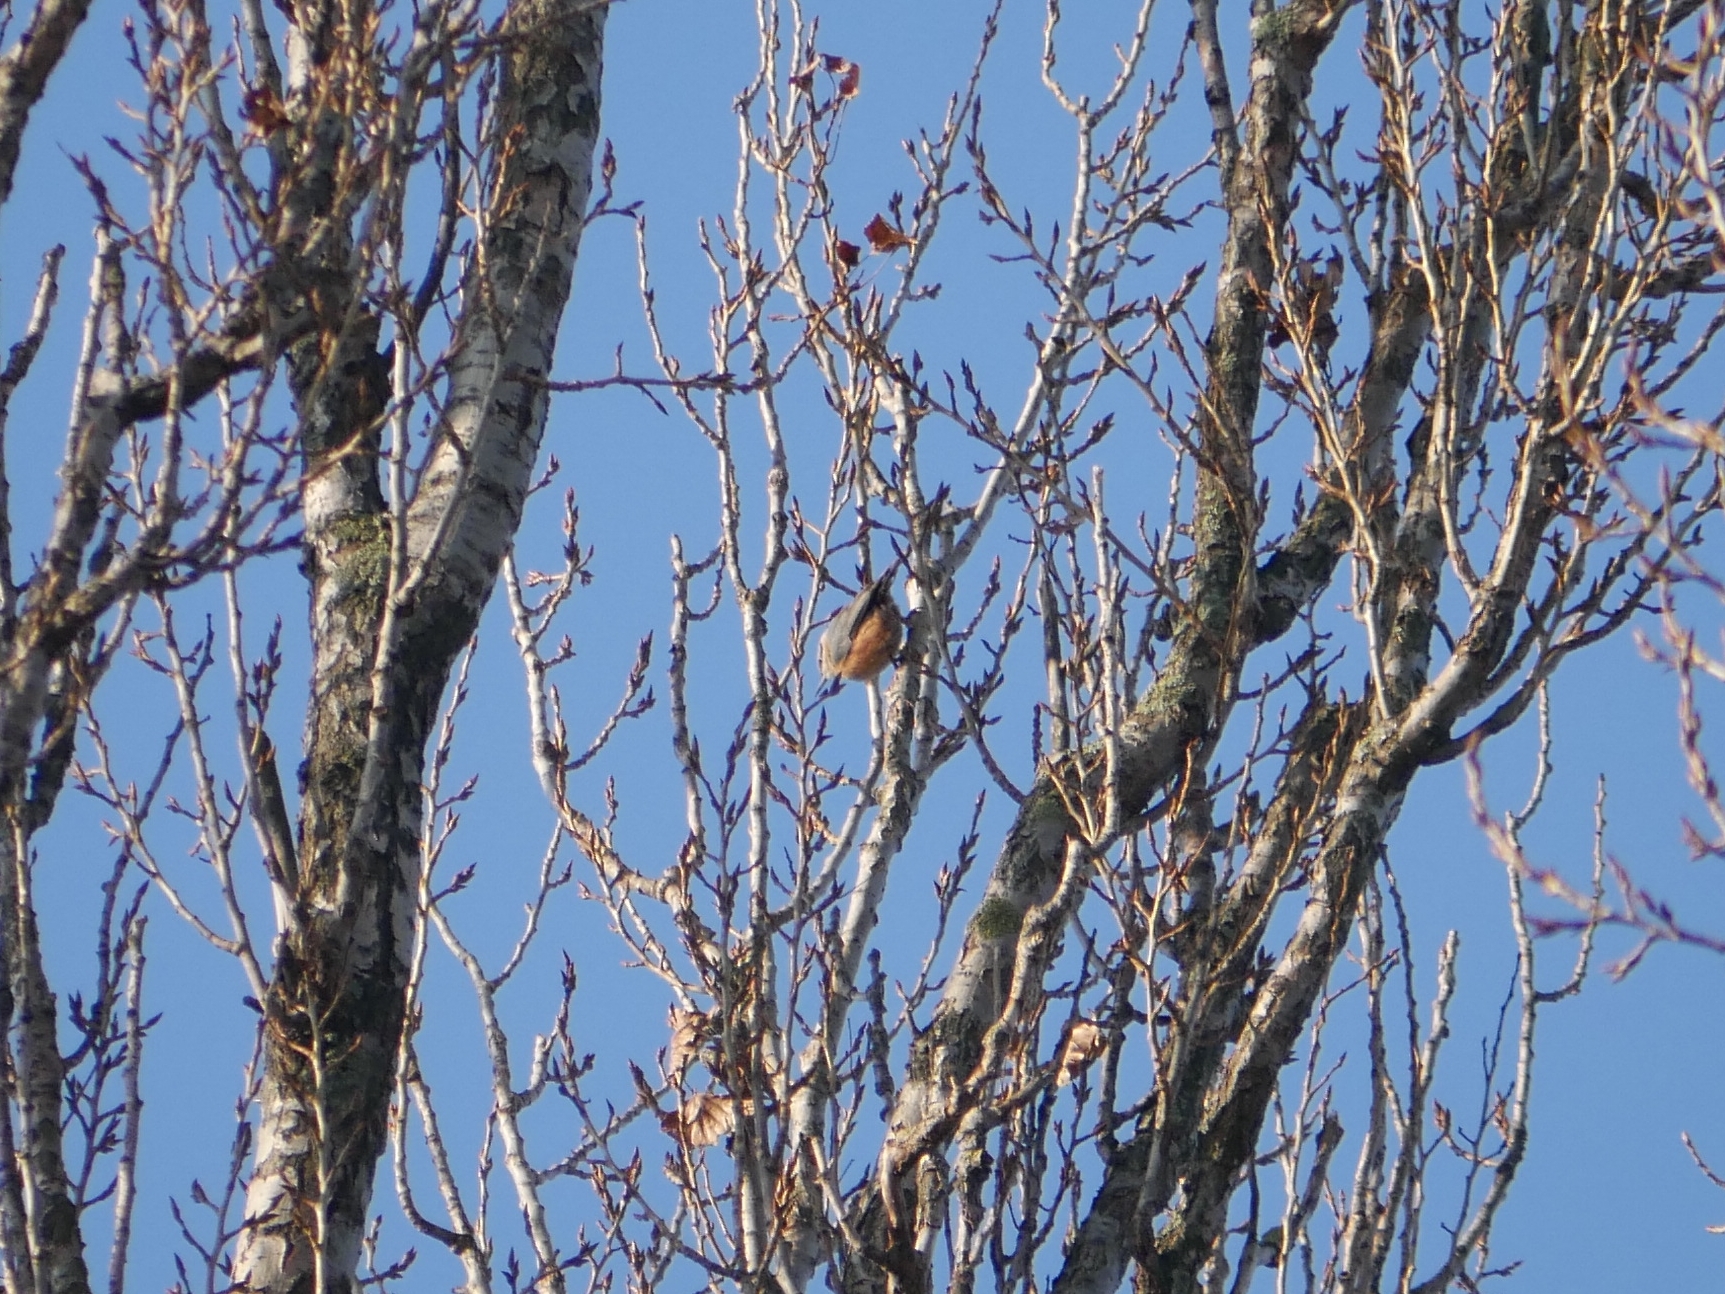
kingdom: Animalia
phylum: Chordata
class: Aves
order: Passeriformes
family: Sittidae
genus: Sitta
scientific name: Sitta europaea
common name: Eurasian nuthatch
